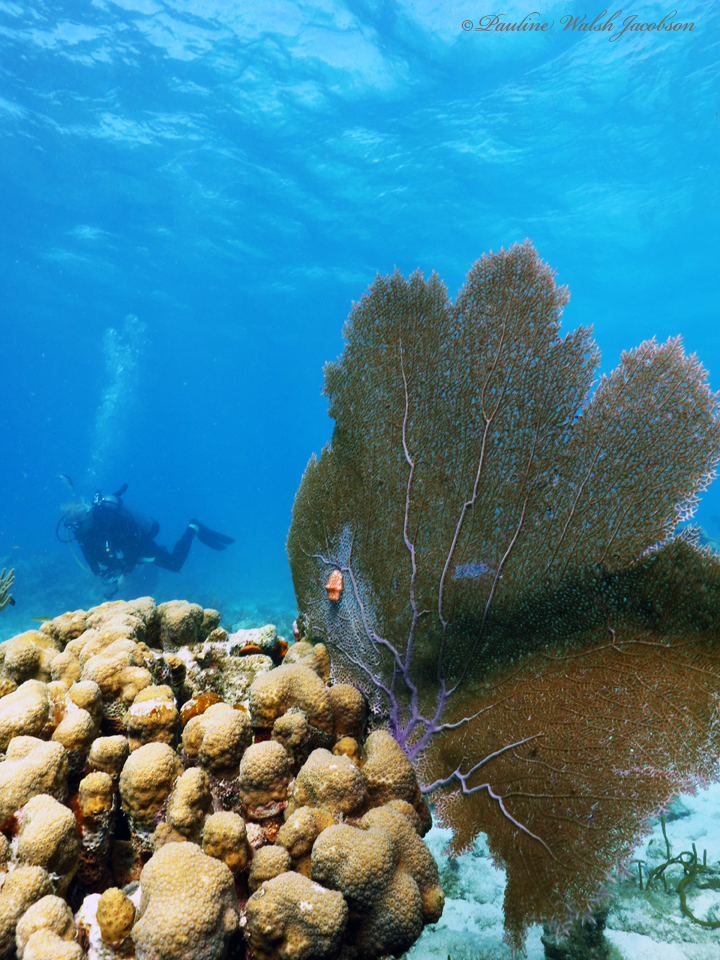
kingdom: Animalia
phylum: Cnidaria
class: Anthozoa
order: Malacalcyonacea
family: Gorgoniidae
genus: Gorgonia
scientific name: Gorgonia ventalina
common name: Common sea fan
